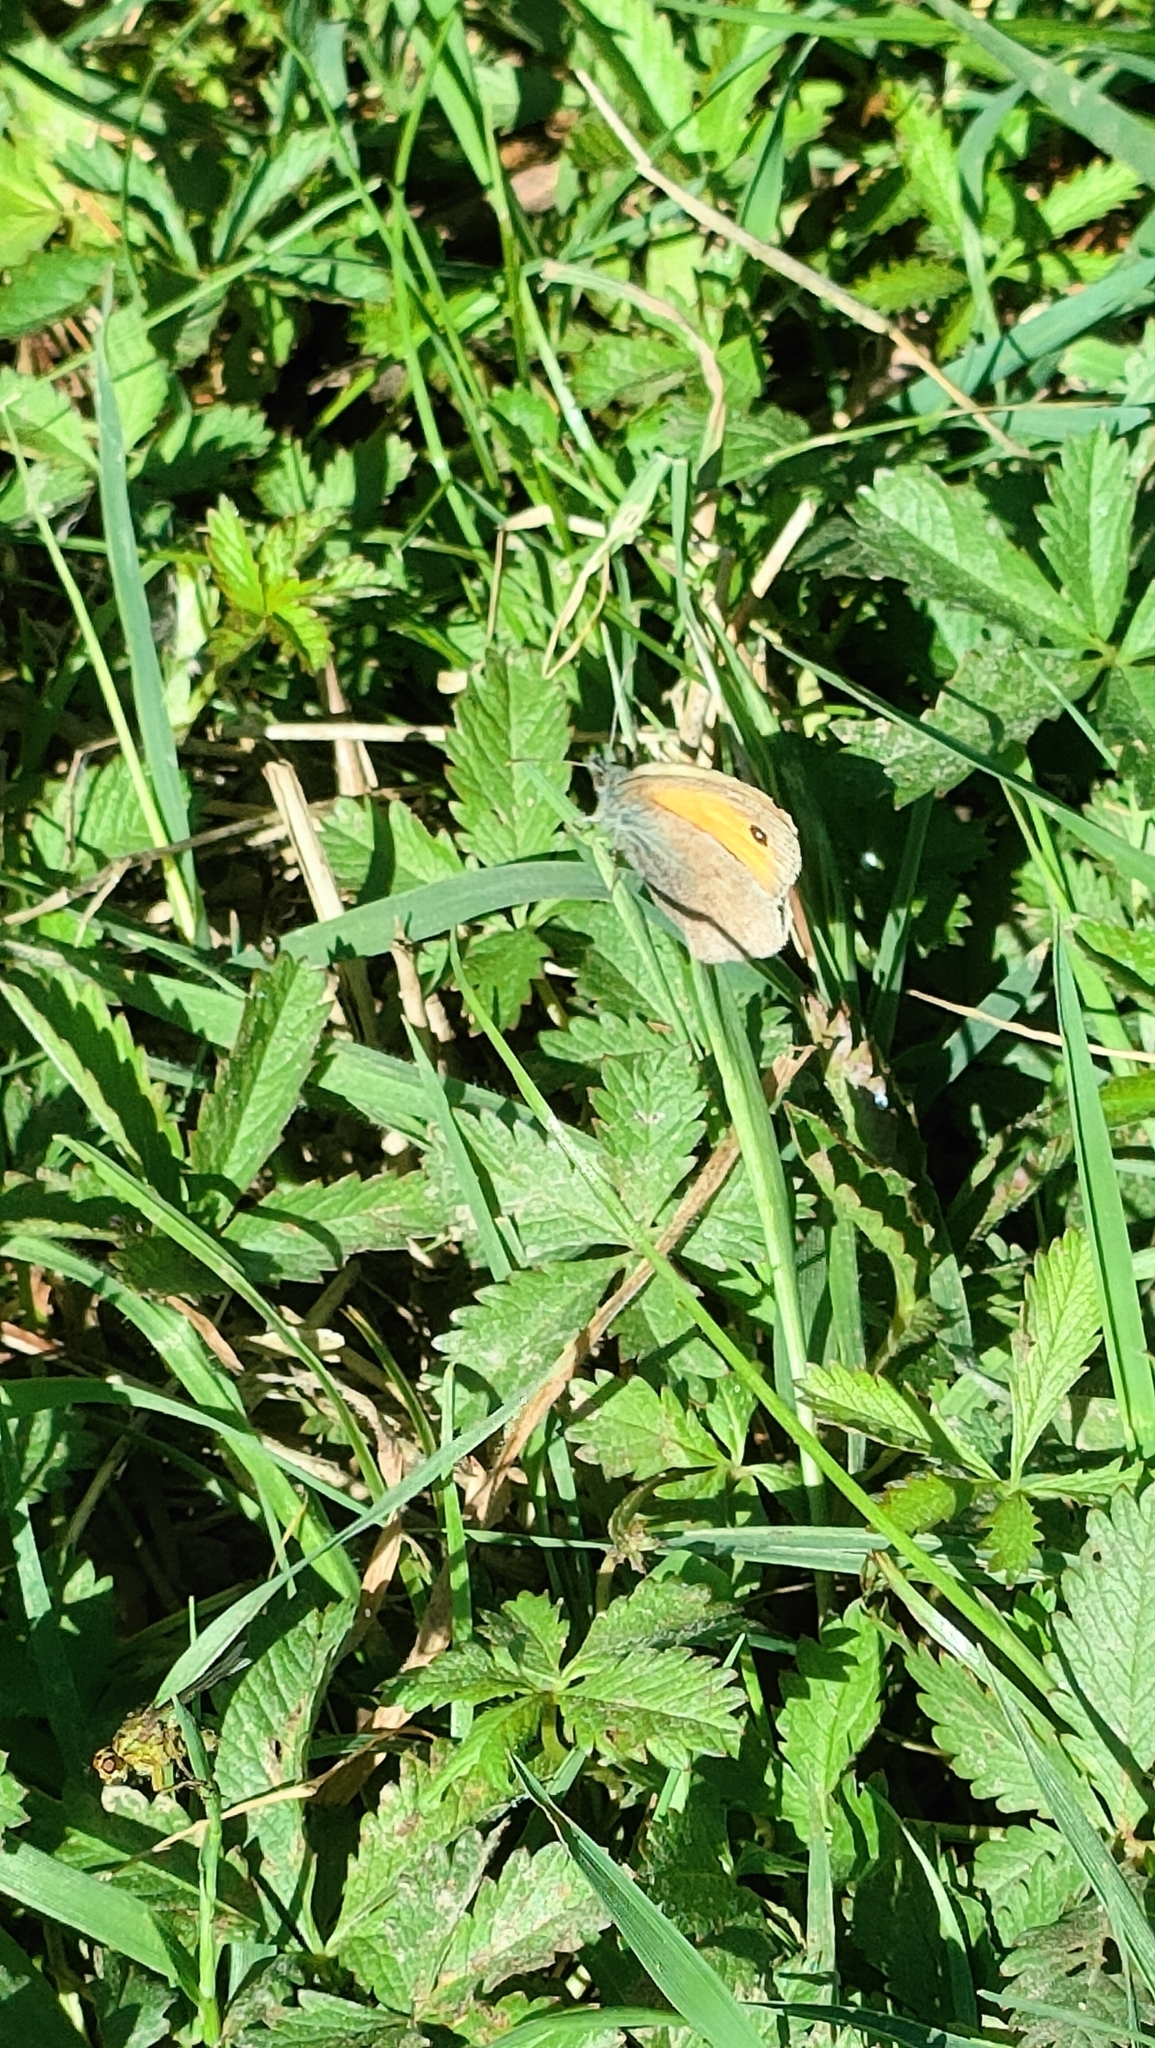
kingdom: Animalia
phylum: Arthropoda
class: Insecta
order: Lepidoptera
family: Nymphalidae
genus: Coenonympha
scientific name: Coenonympha pamphilus
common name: Small heath
